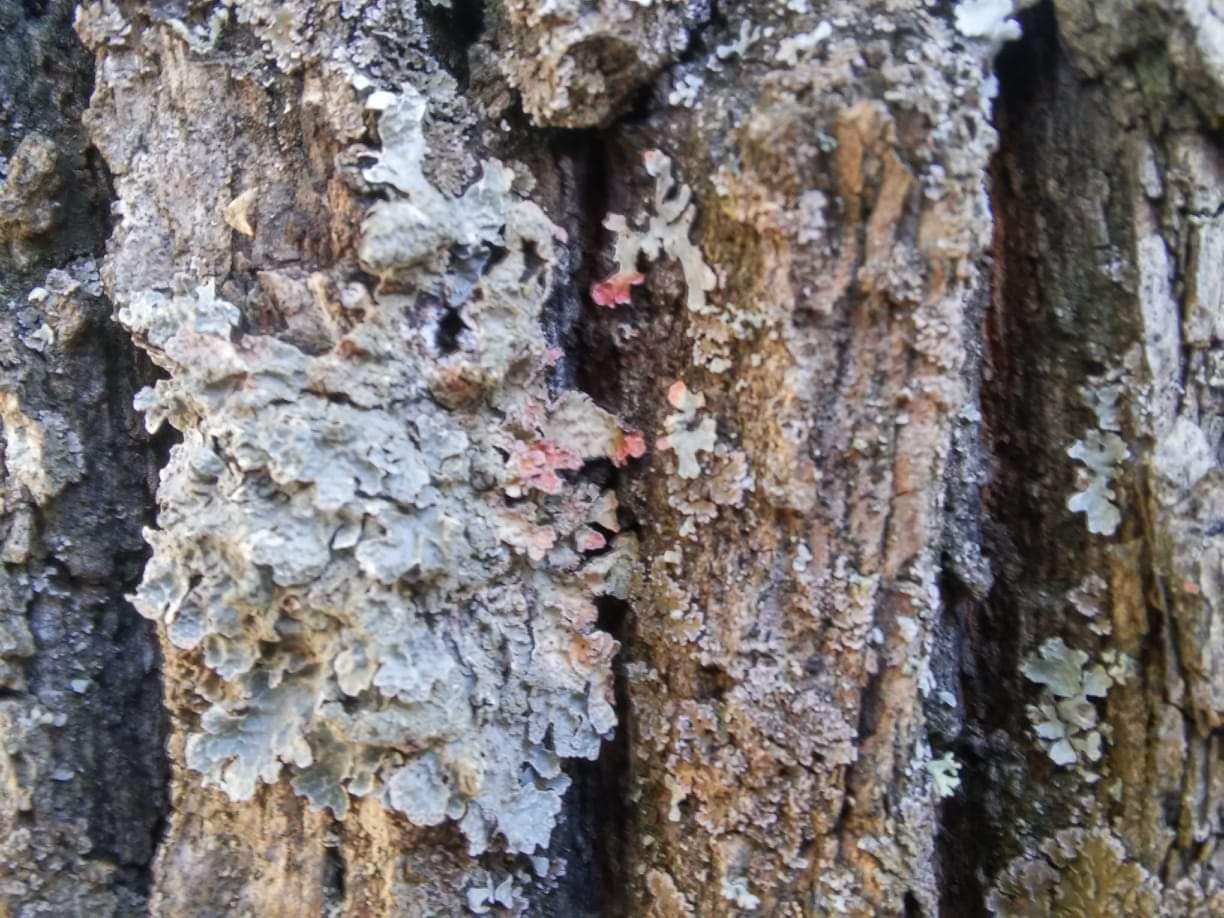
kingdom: Fungi
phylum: Ascomycota
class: Lecanoromycetes
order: Lecanorales
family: Parmeliaceae
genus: Parmelia
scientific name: Parmelia sulcata
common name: Netted shield lichen
